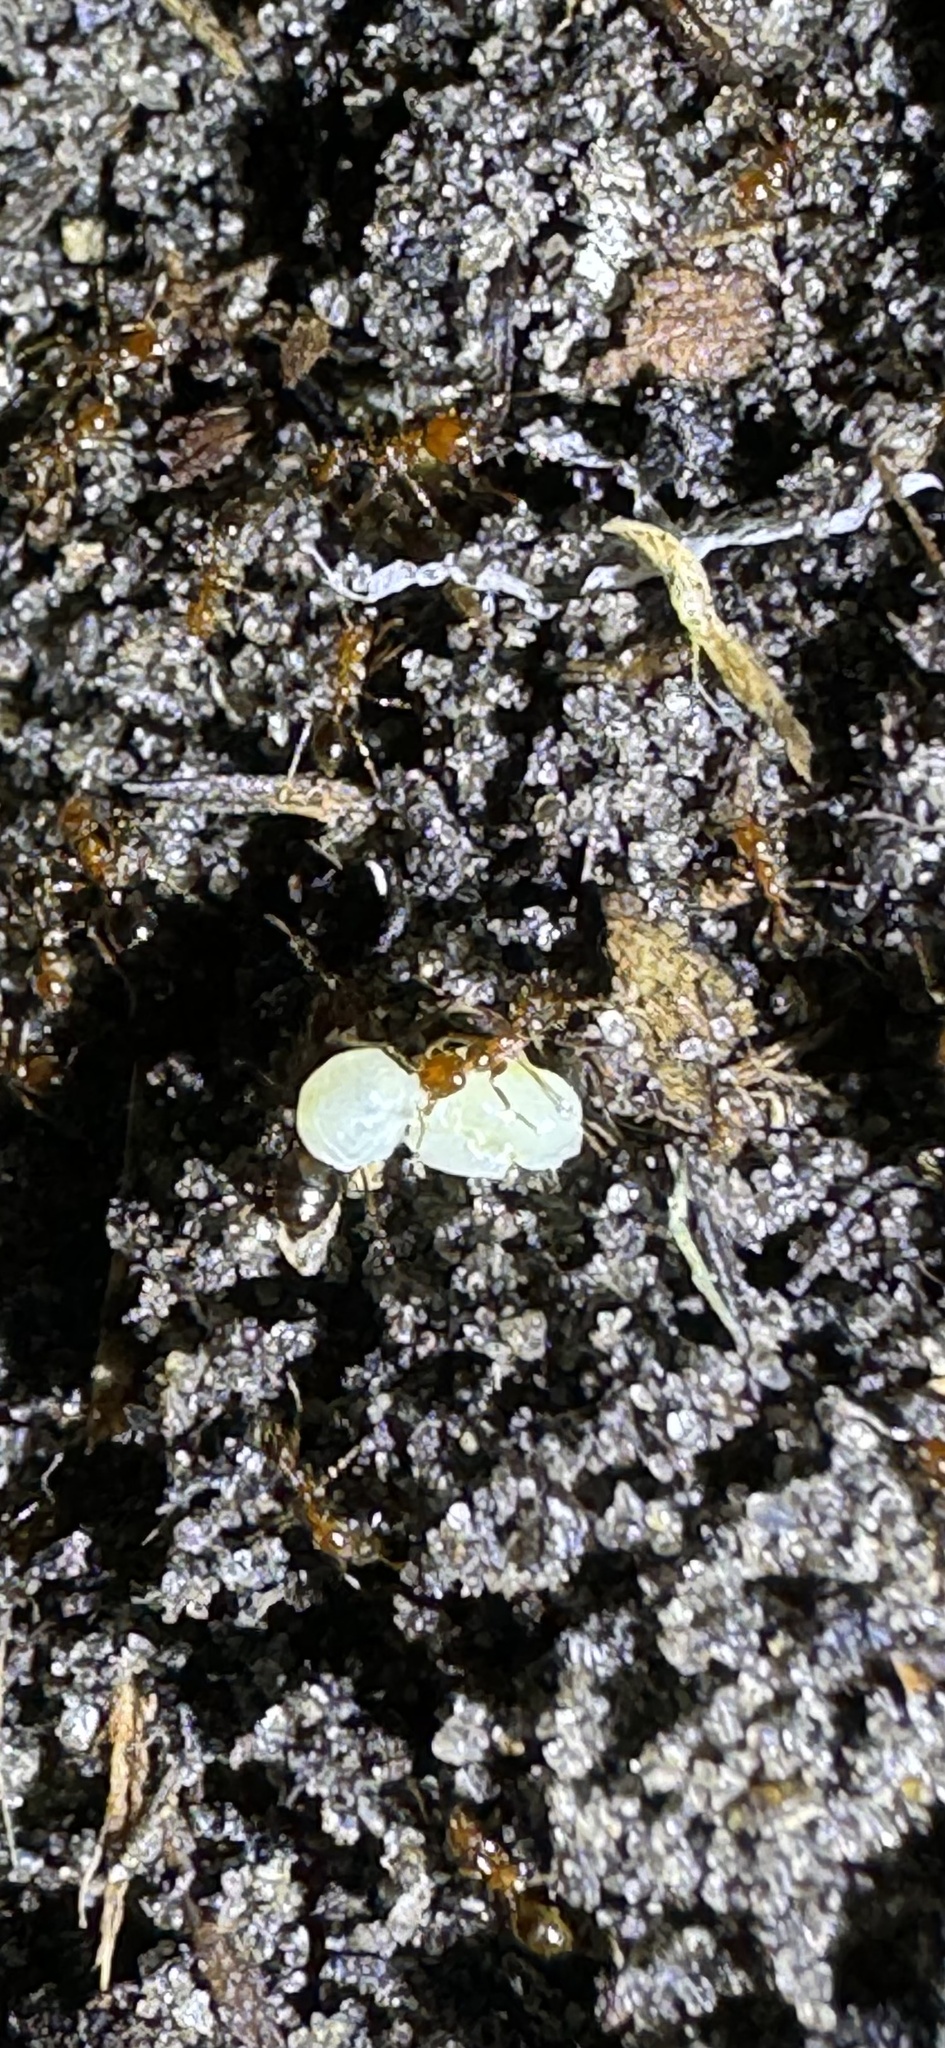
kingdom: Animalia
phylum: Arthropoda
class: Insecta
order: Hymenoptera
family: Formicidae
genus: Solenopsis
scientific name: Solenopsis invicta
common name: Red imported fire ant
